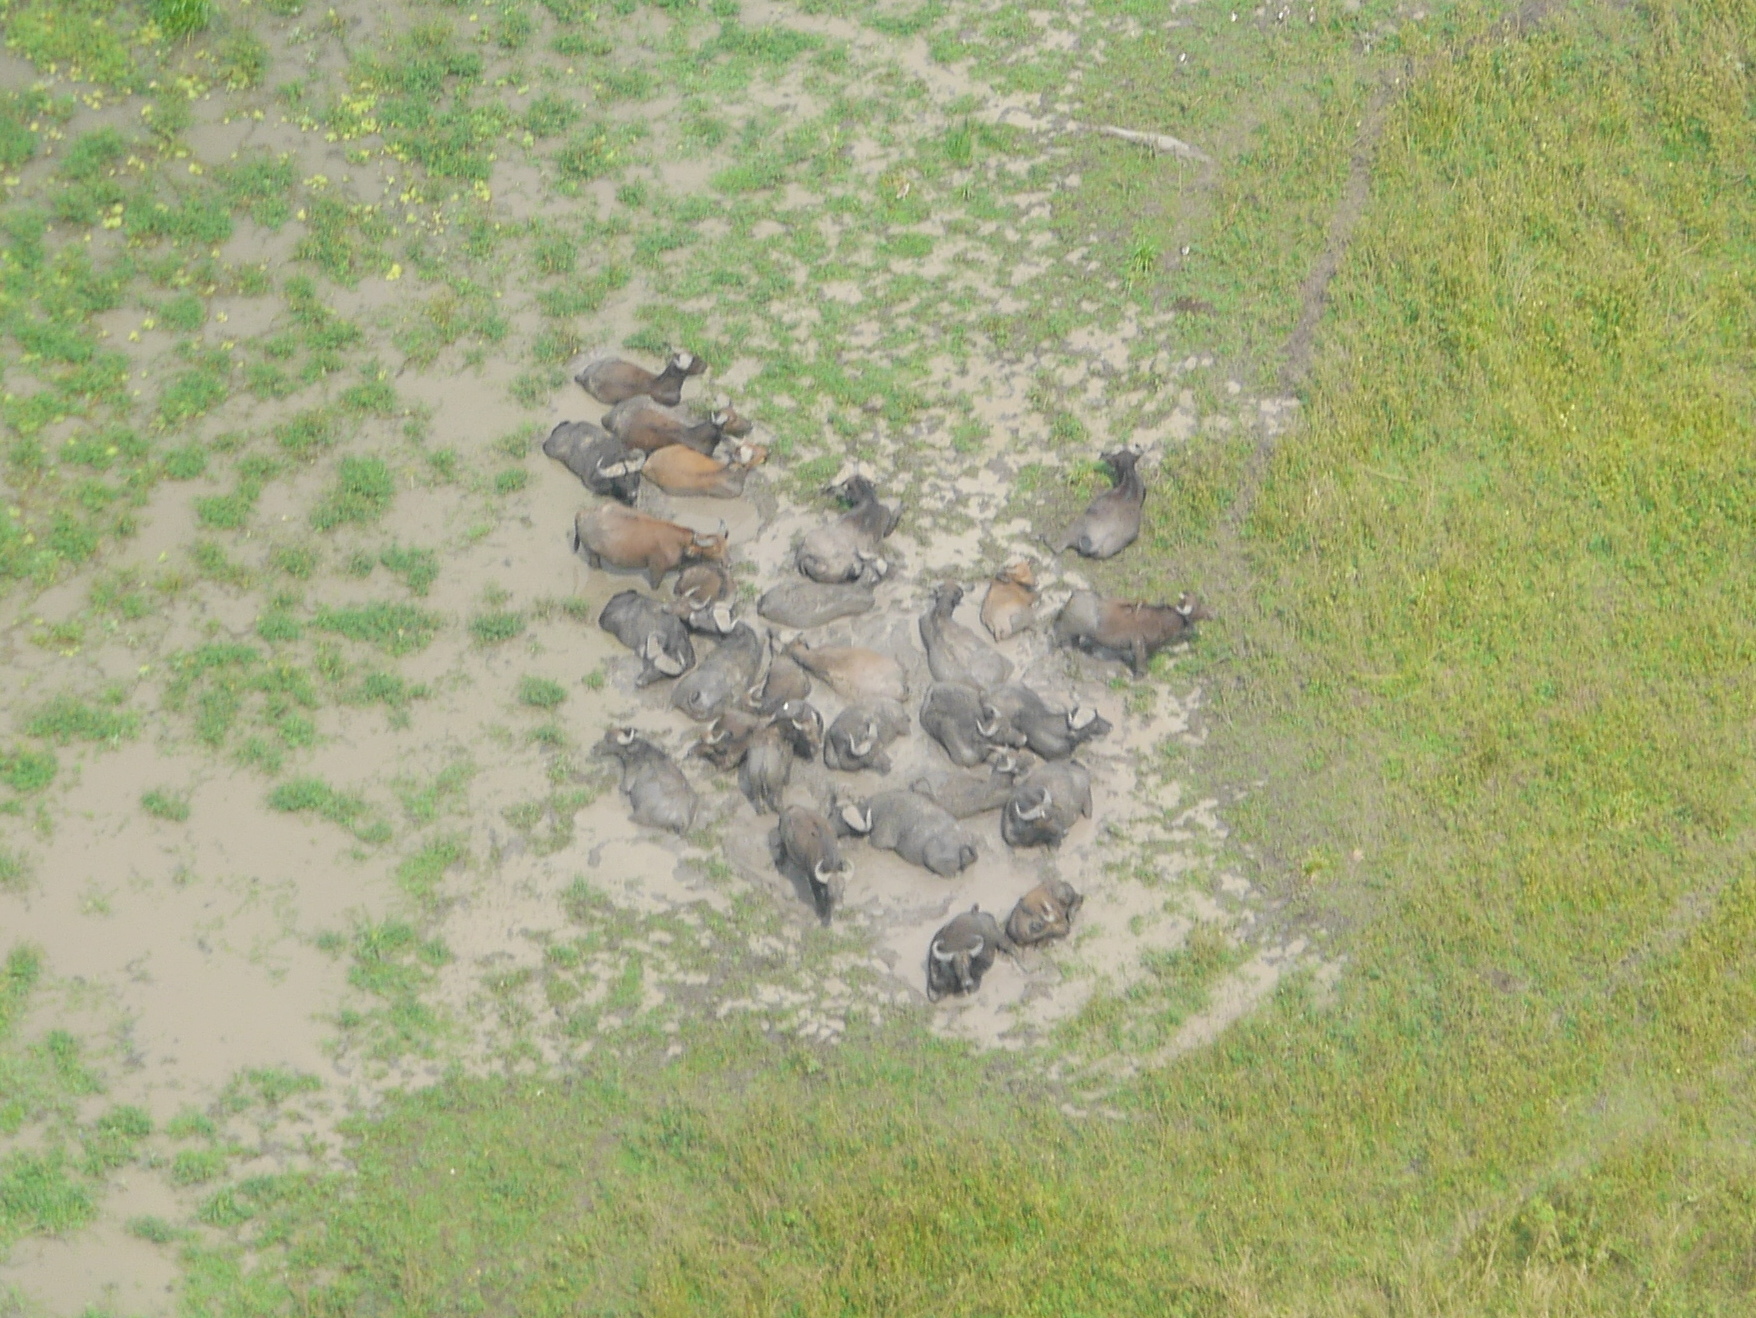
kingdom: Animalia
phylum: Chordata
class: Mammalia
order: Artiodactyla
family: Bovidae
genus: Syncerus
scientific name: Syncerus caffer
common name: African buffalo
